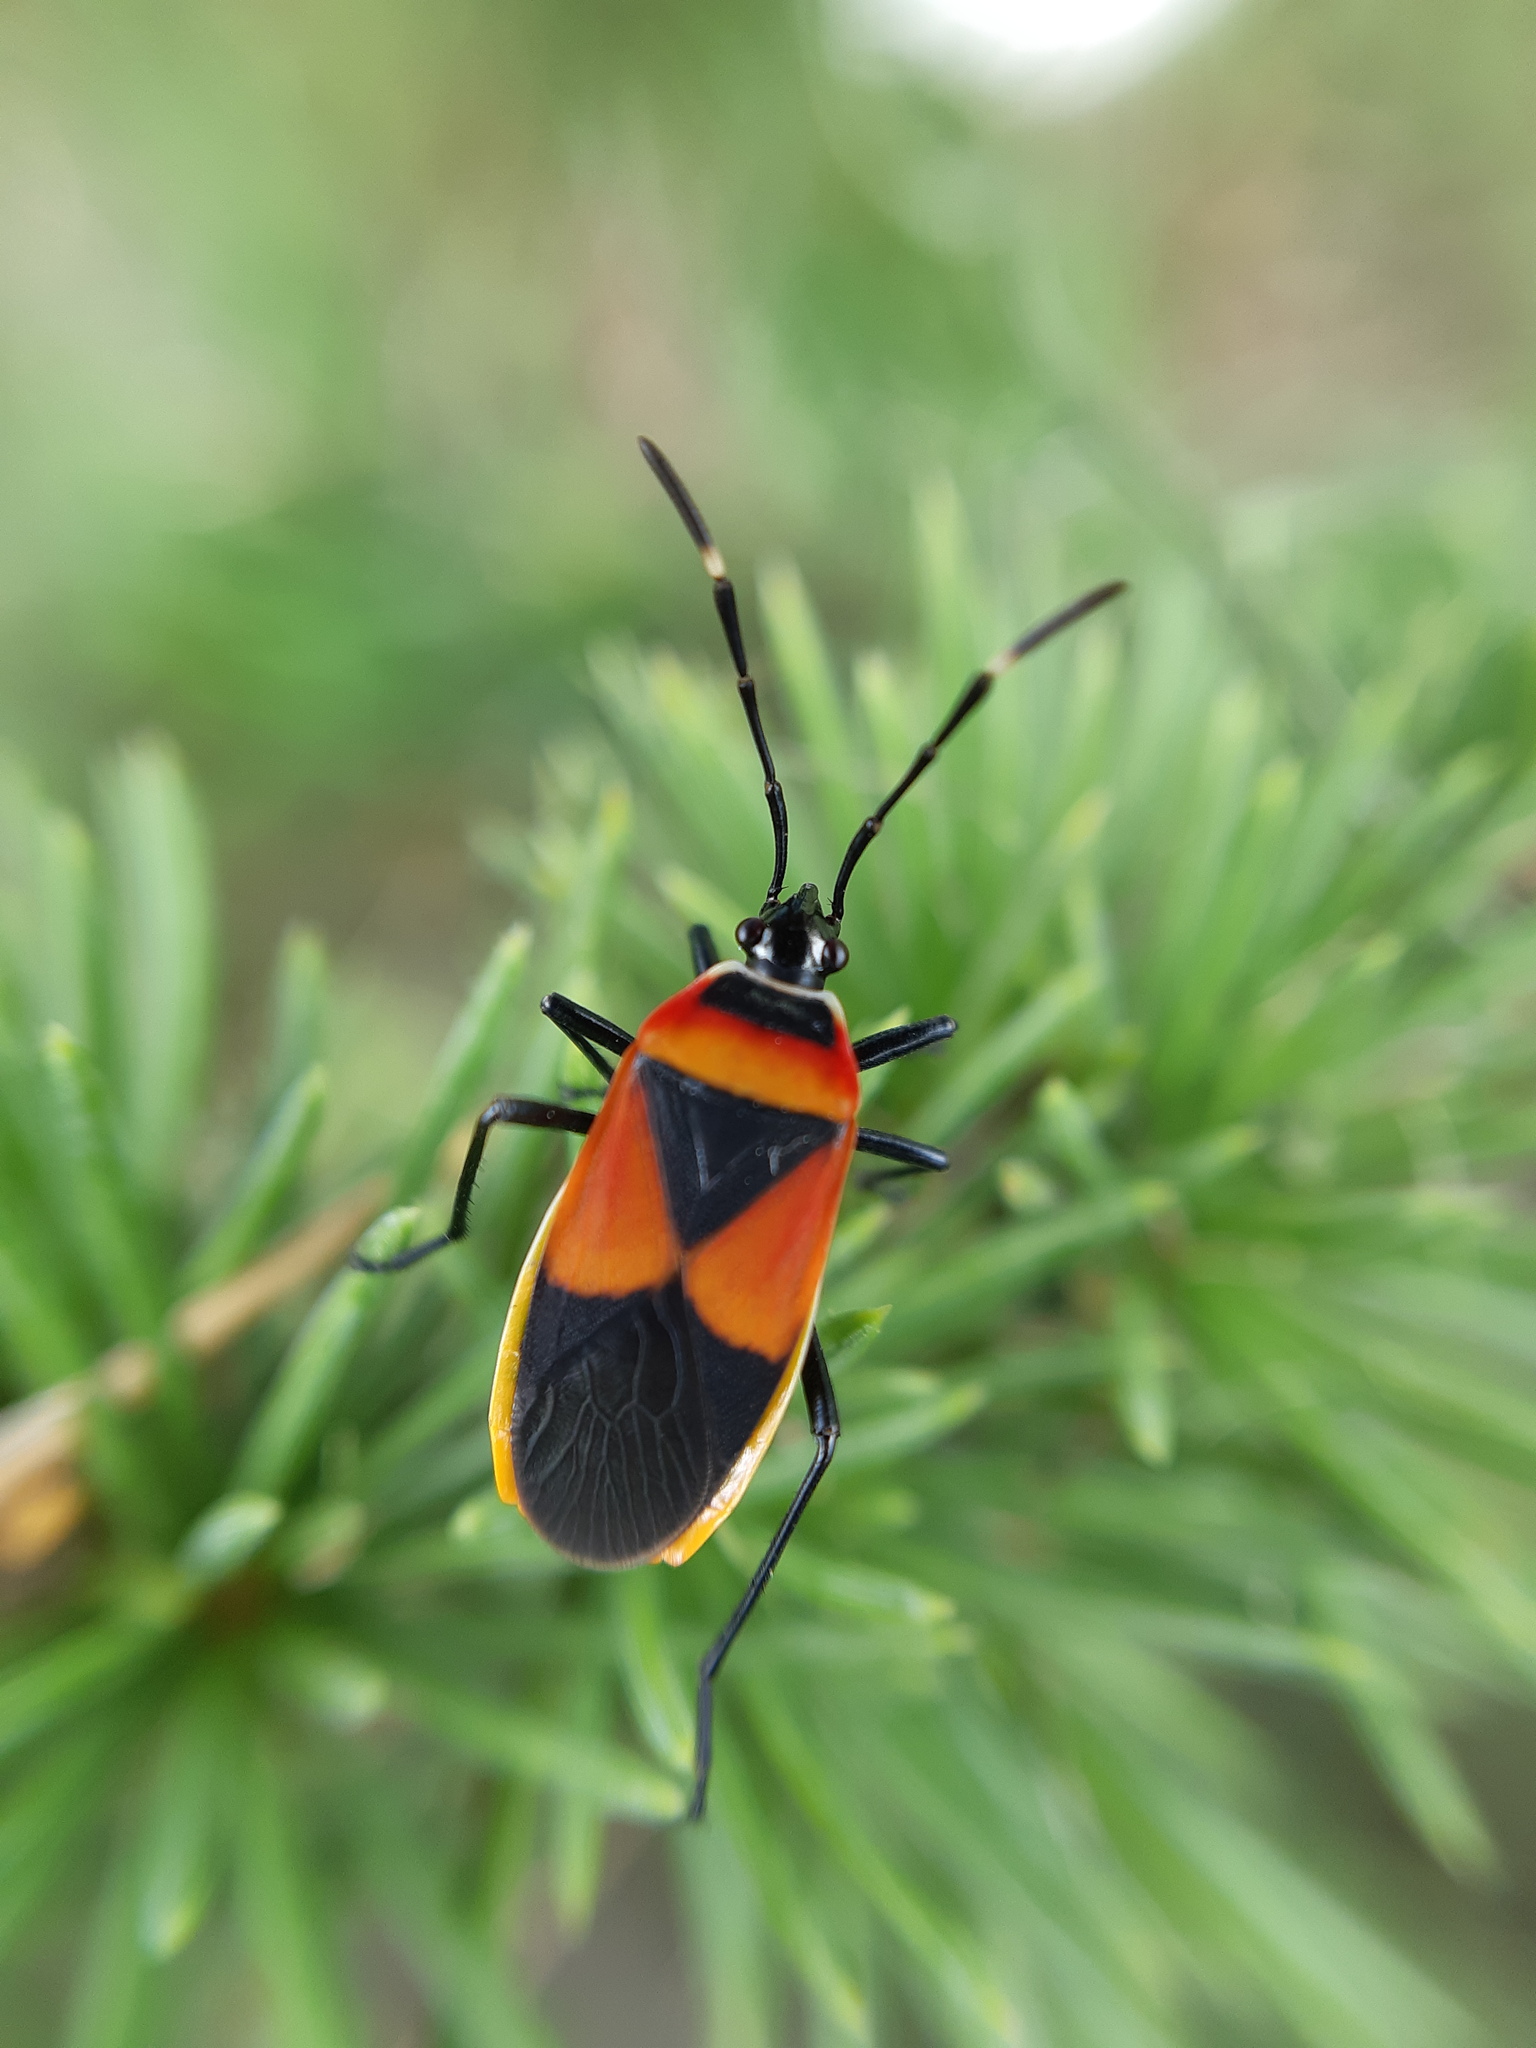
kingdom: Animalia
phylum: Arthropoda
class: Insecta
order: Hemiptera
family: Pyrrhocoridae
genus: Dindymus
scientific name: Dindymus
